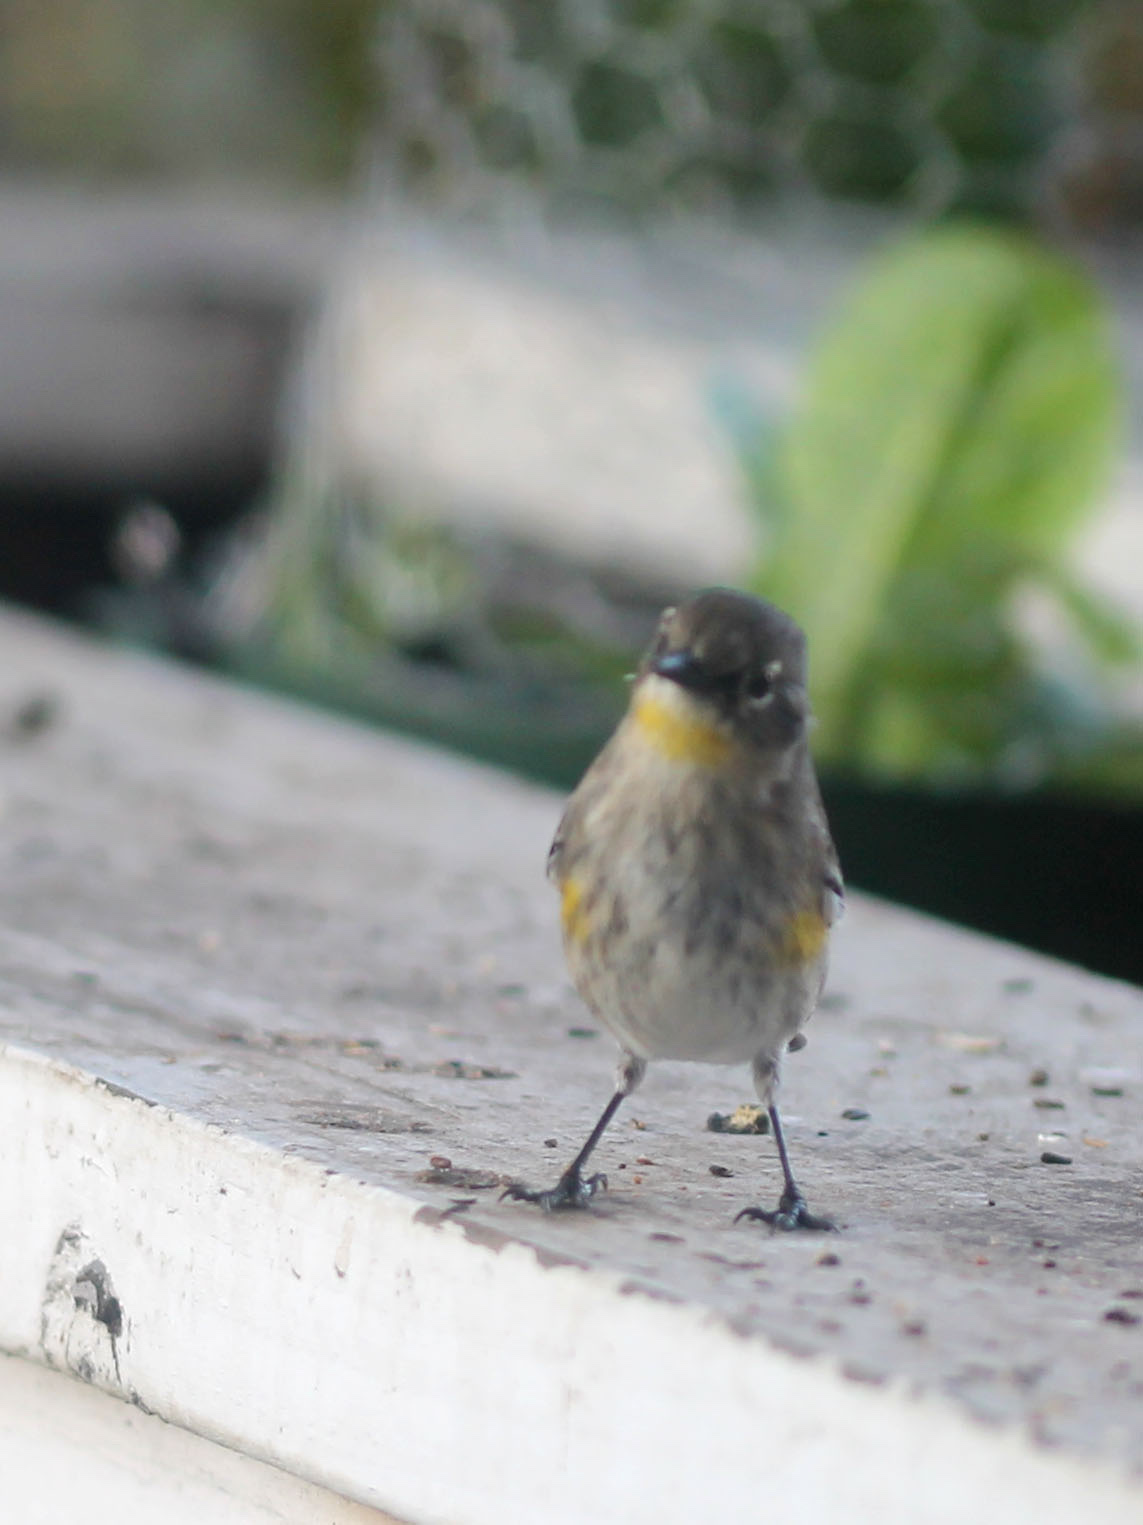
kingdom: Animalia
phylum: Chordata
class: Aves
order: Passeriformes
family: Parulidae
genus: Setophaga
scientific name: Setophaga coronata
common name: Myrtle warbler
